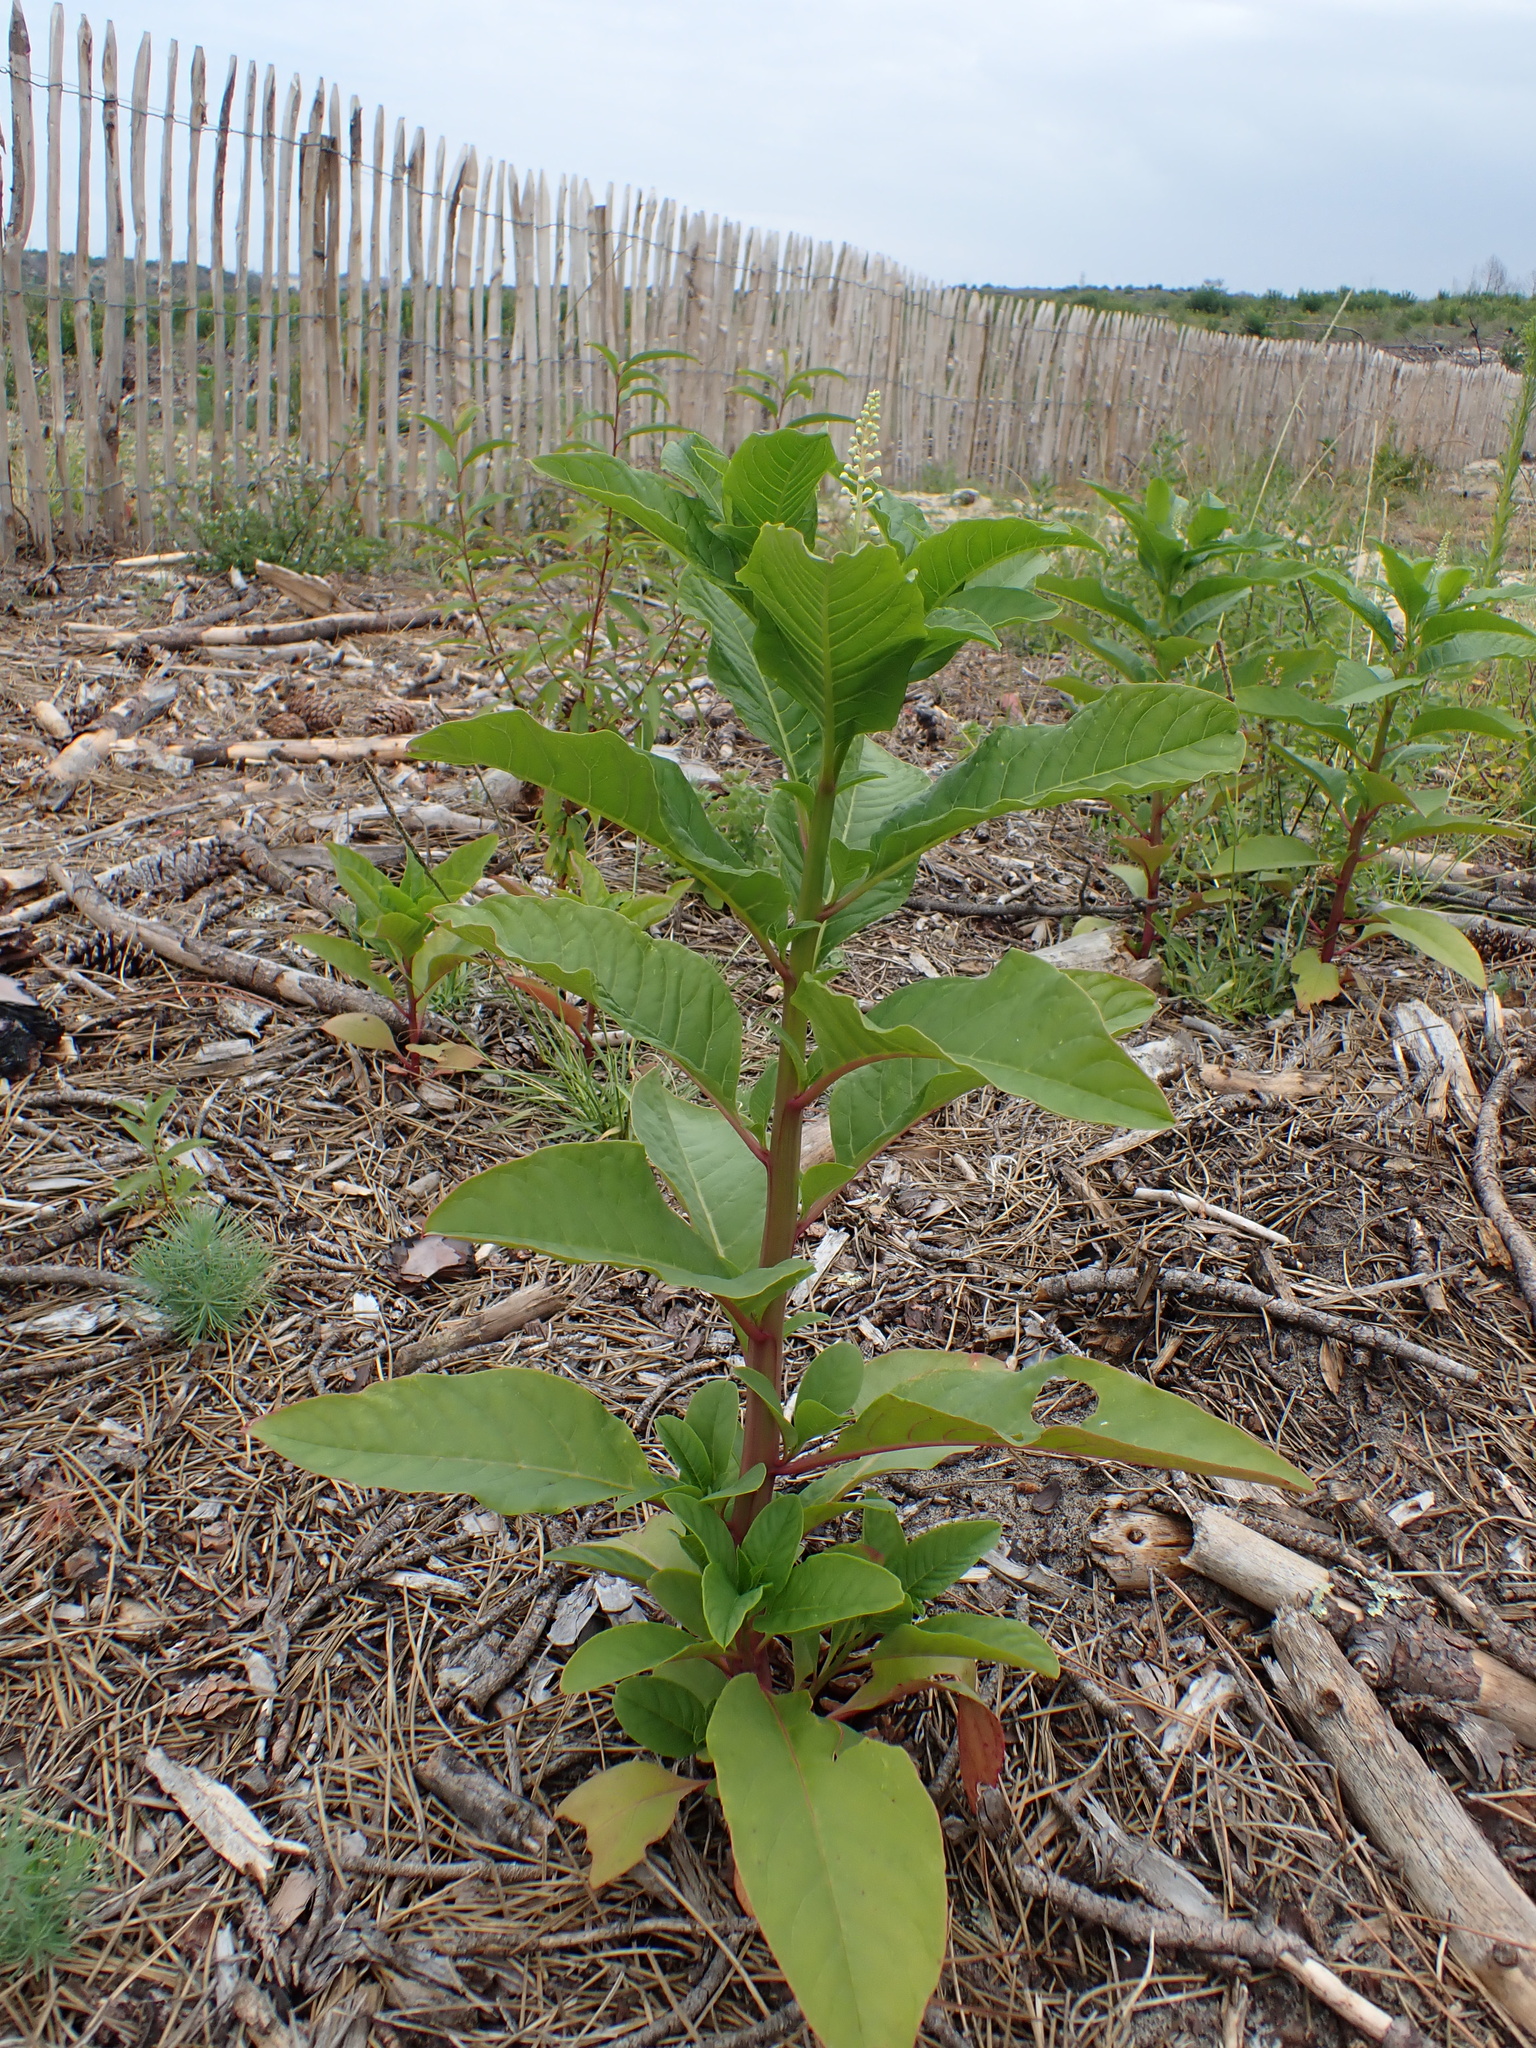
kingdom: Plantae
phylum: Tracheophyta
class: Magnoliopsida
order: Caryophyllales
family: Phytolaccaceae
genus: Phytolacca
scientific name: Phytolacca americana
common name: American pokeweed
